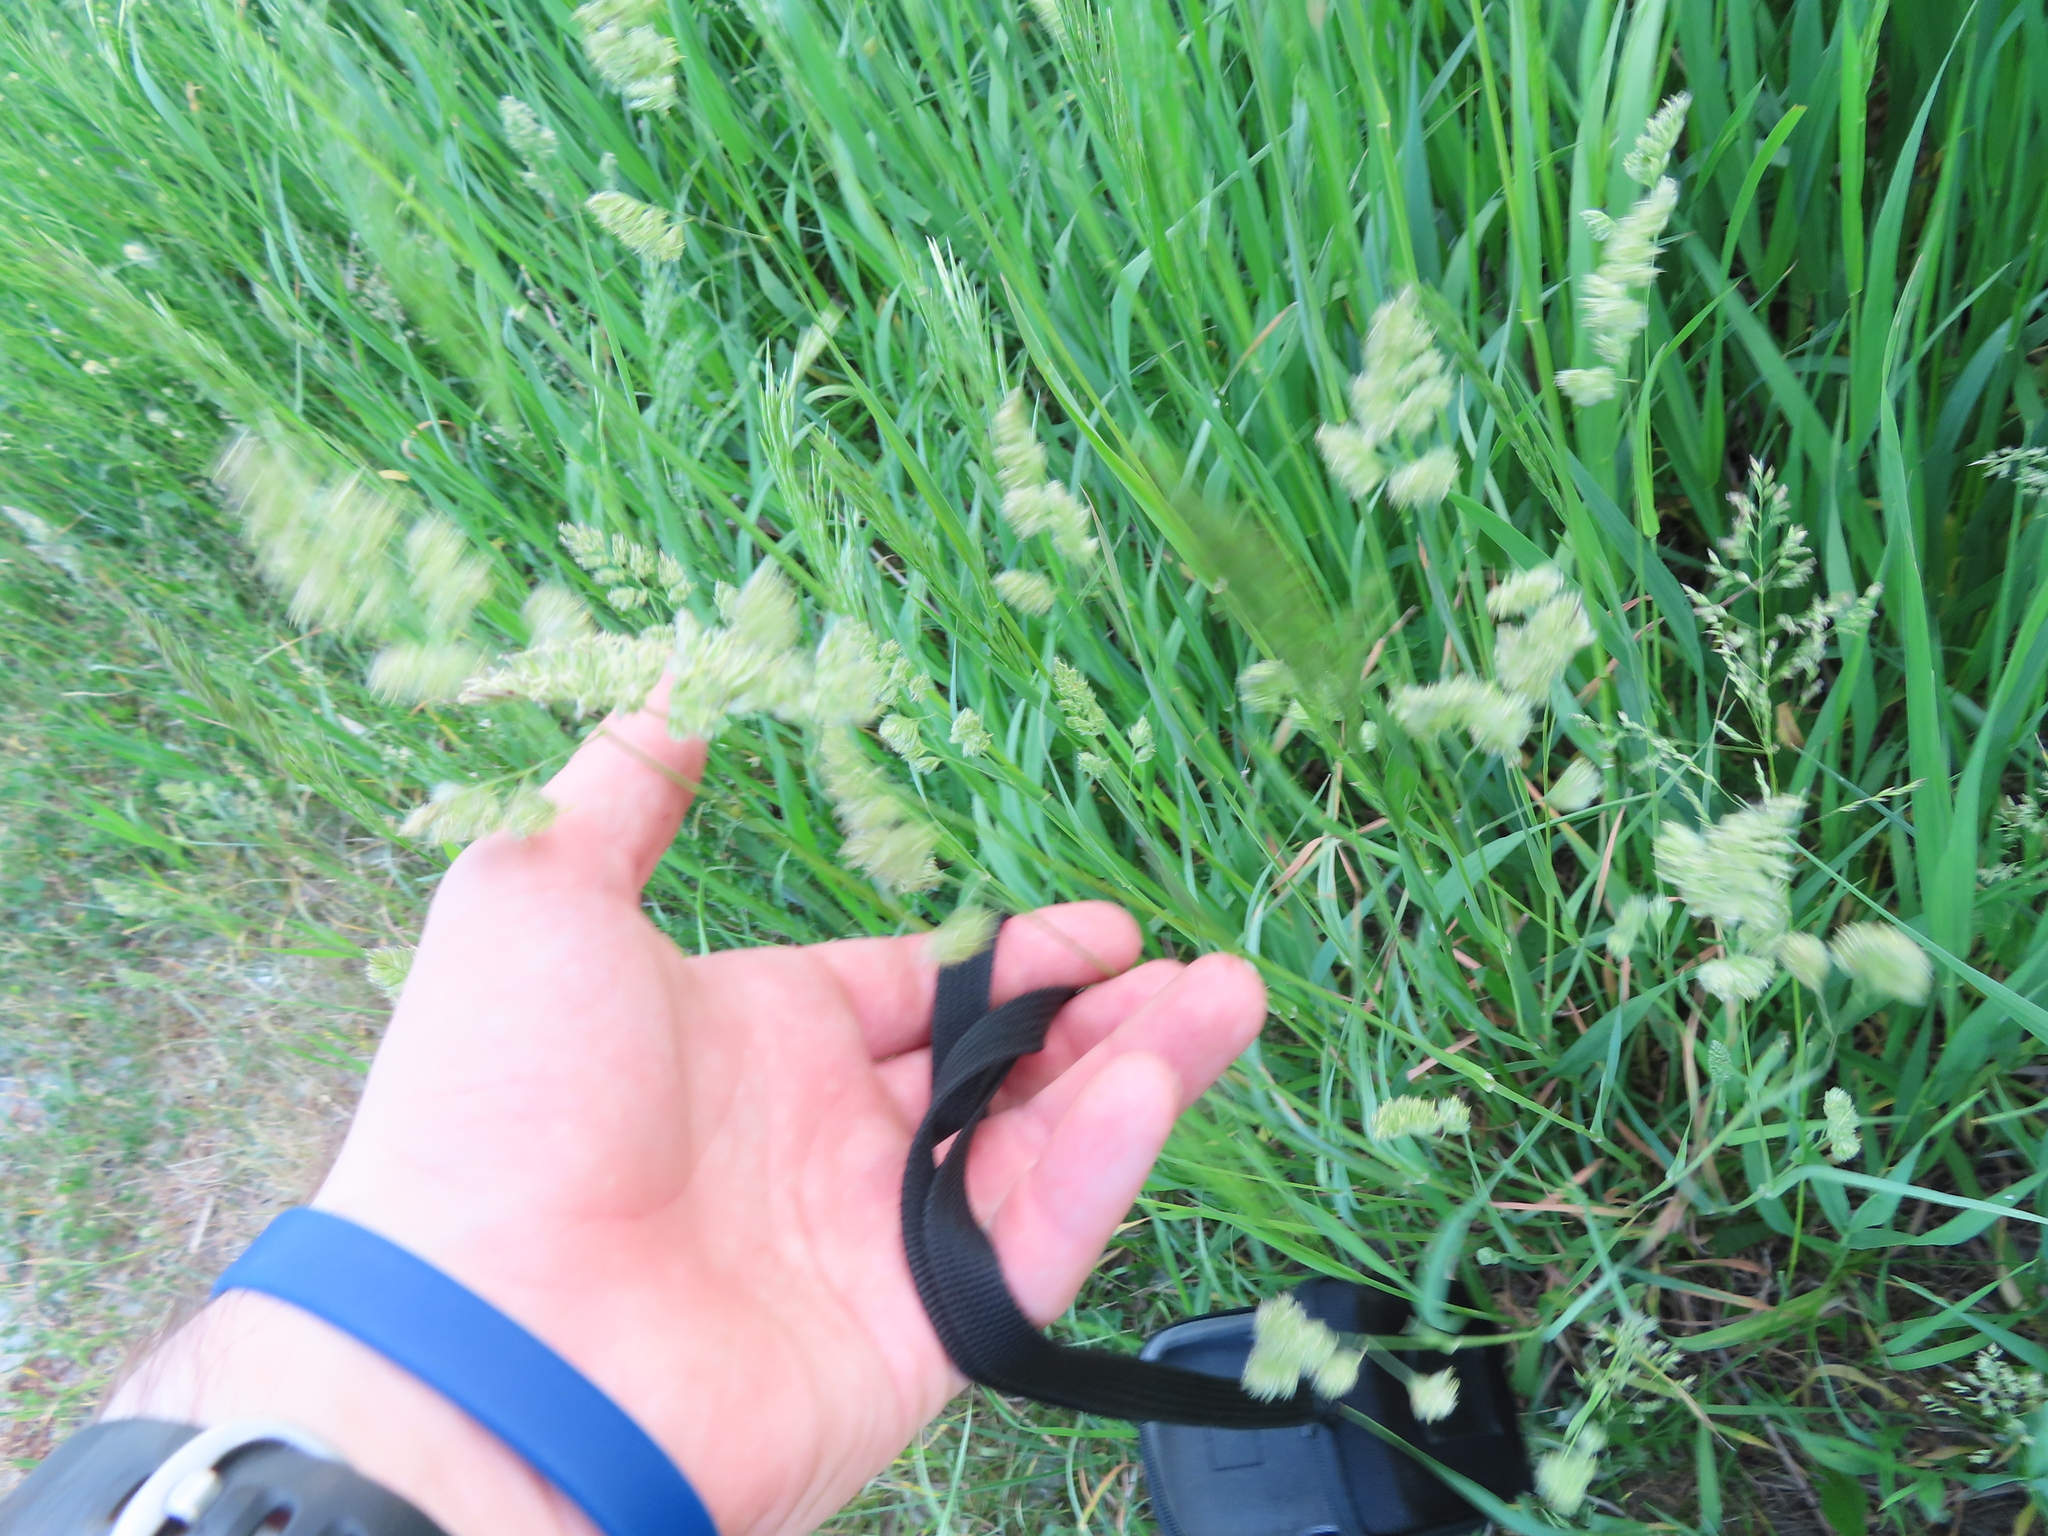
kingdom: Plantae
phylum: Tracheophyta
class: Liliopsida
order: Poales
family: Poaceae
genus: Dactylis
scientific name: Dactylis glomerata
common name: Orchardgrass
